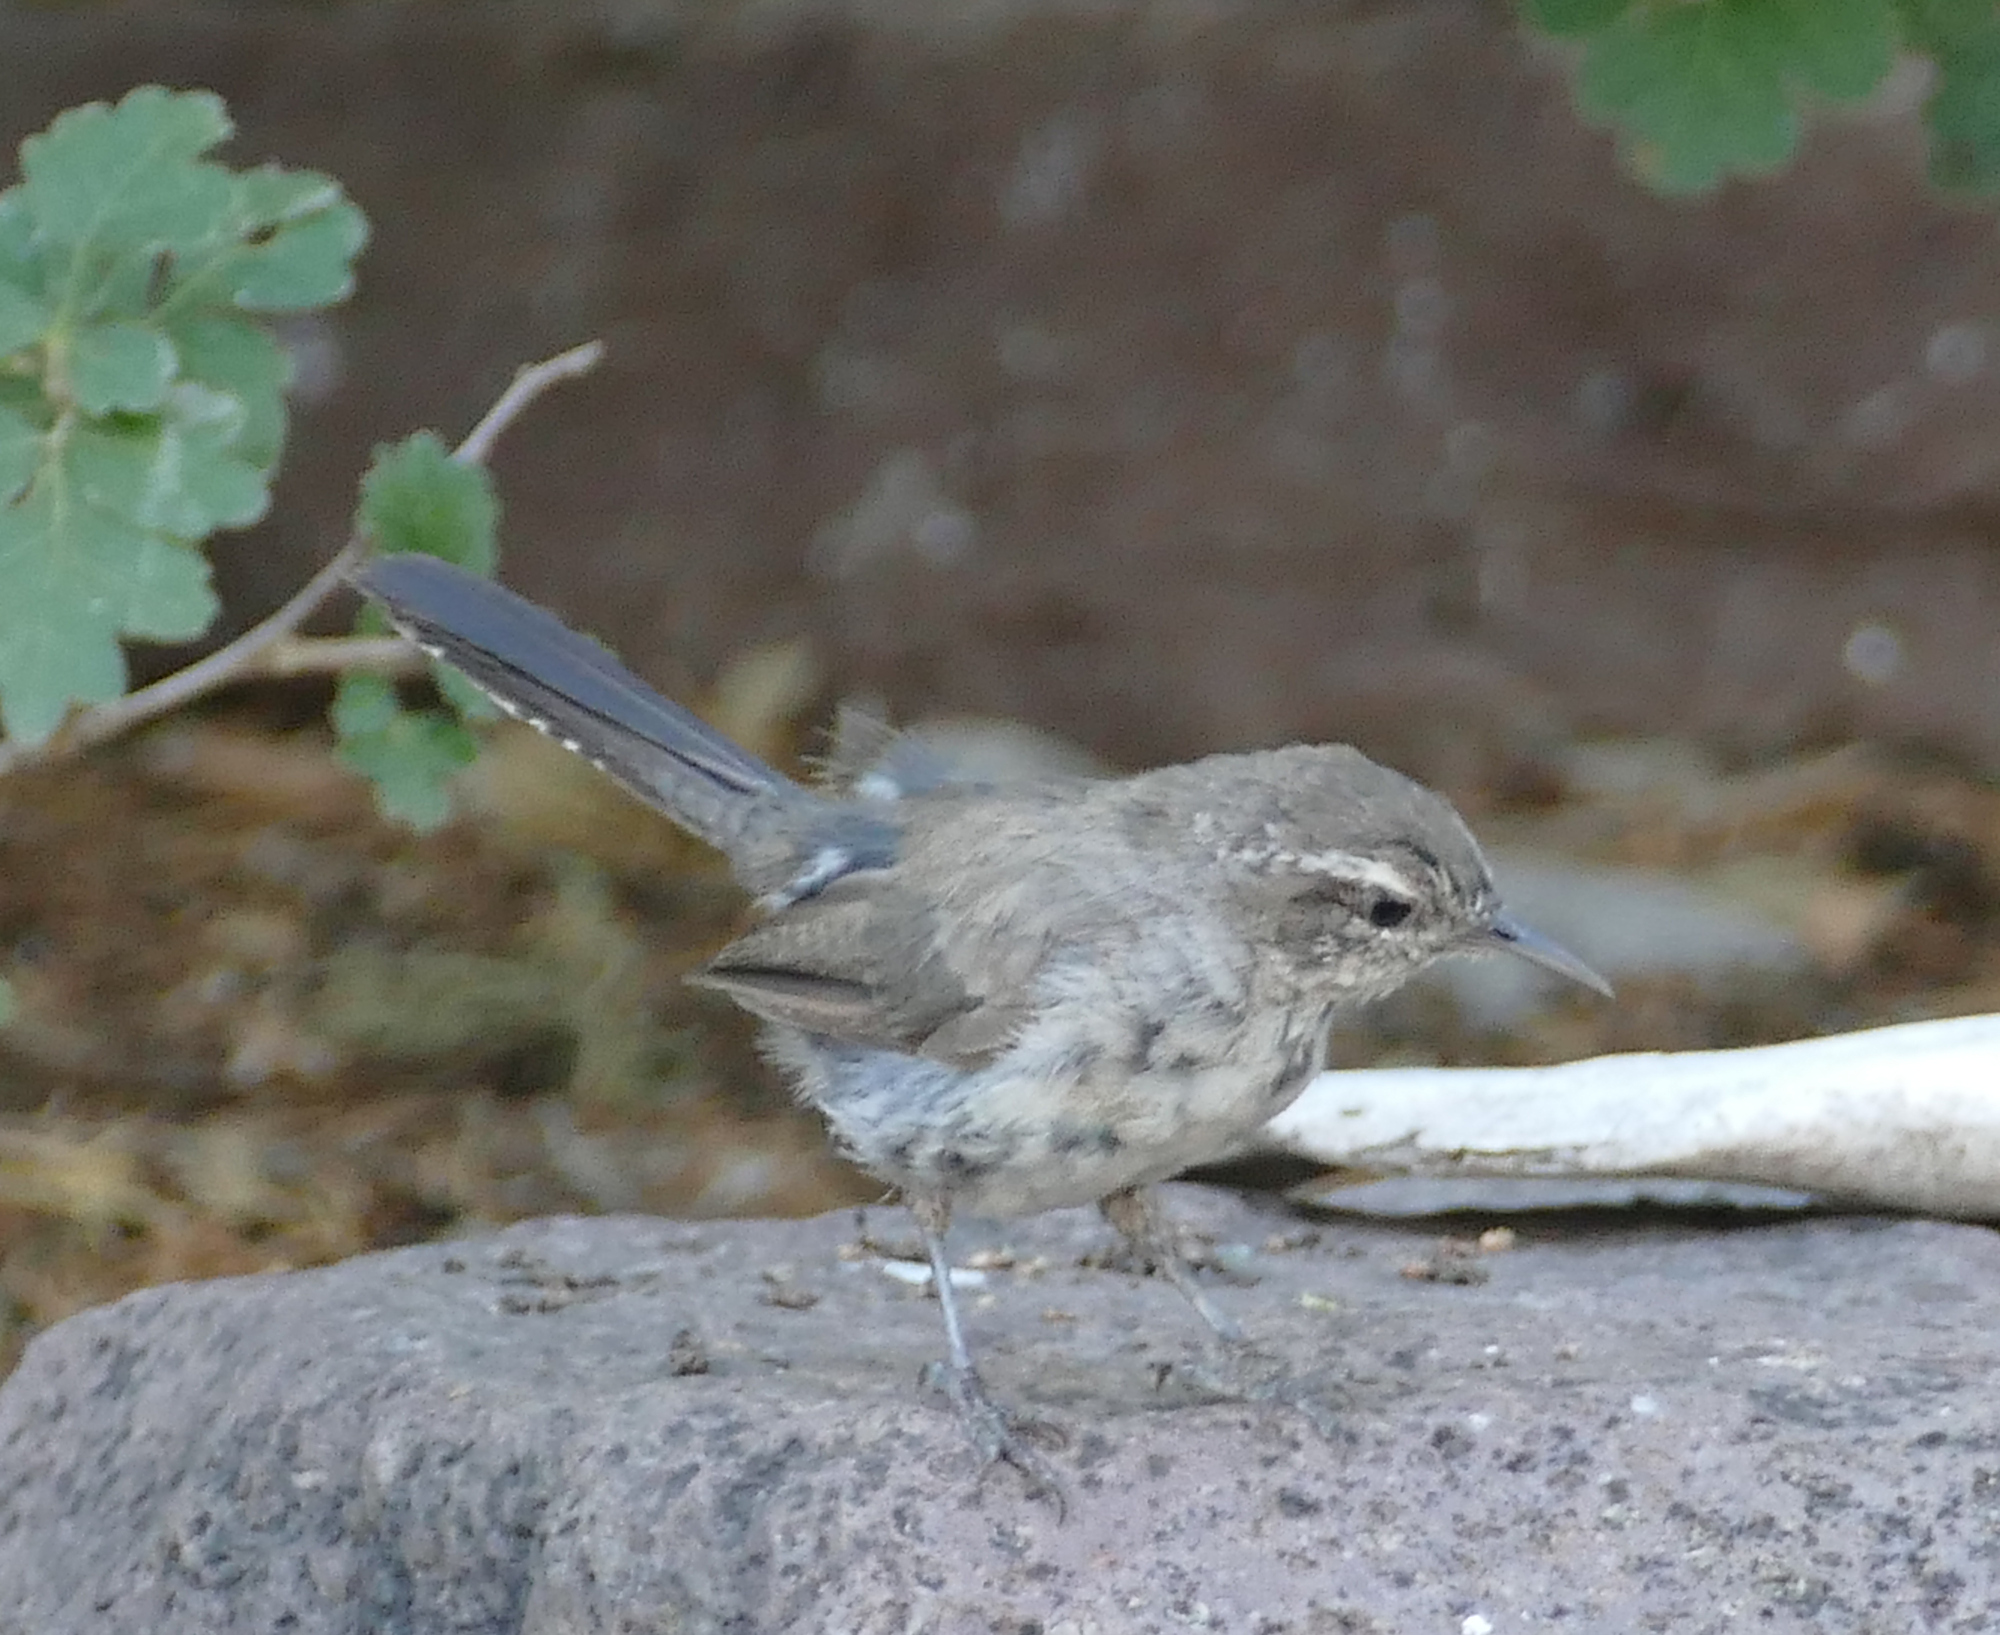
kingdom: Animalia
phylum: Chordata
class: Aves
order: Passeriformes
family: Troglodytidae
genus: Thryomanes
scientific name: Thryomanes bewickii
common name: Bewick's wren
